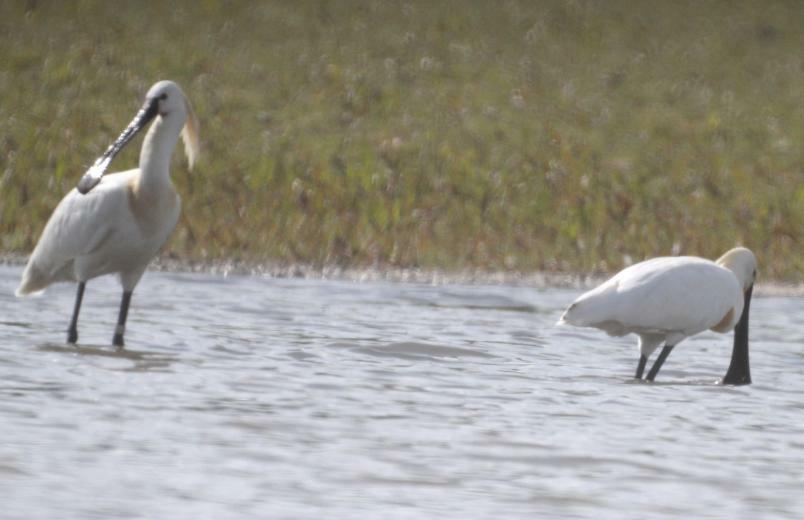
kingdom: Animalia
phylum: Chordata
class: Aves
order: Pelecaniformes
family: Threskiornithidae
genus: Platalea
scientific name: Platalea leucorodia
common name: Eurasian spoonbill
